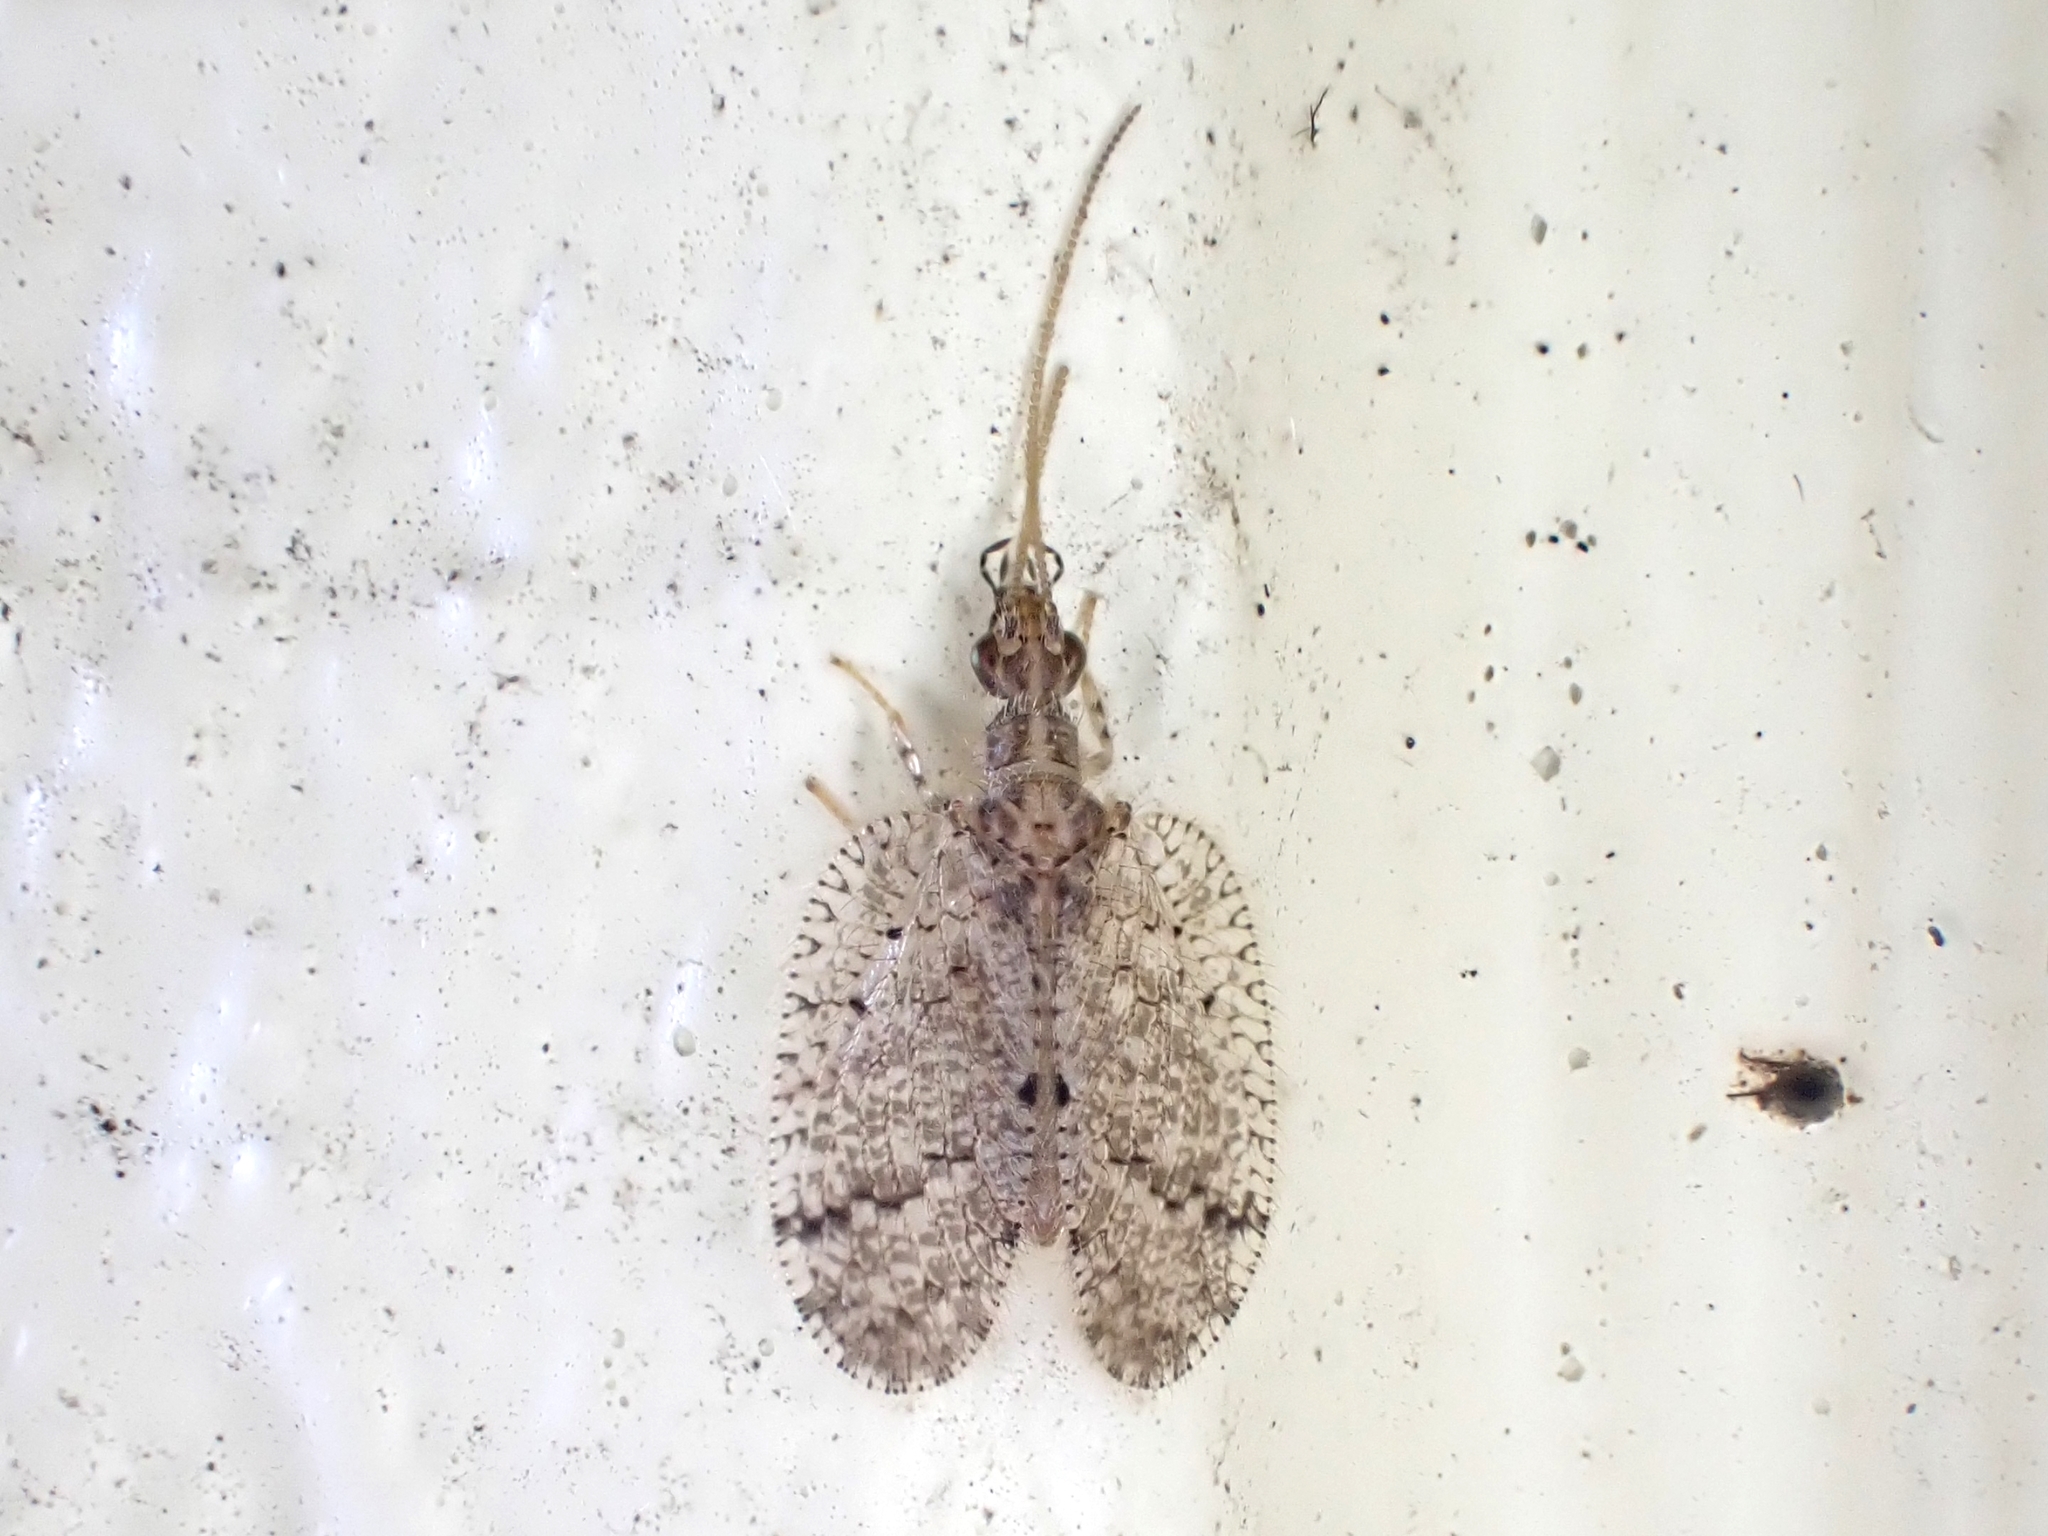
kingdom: Animalia
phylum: Arthropoda
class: Insecta
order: Neuroptera
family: Hemerobiidae
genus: Psectra
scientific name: Psectra nakaharai
